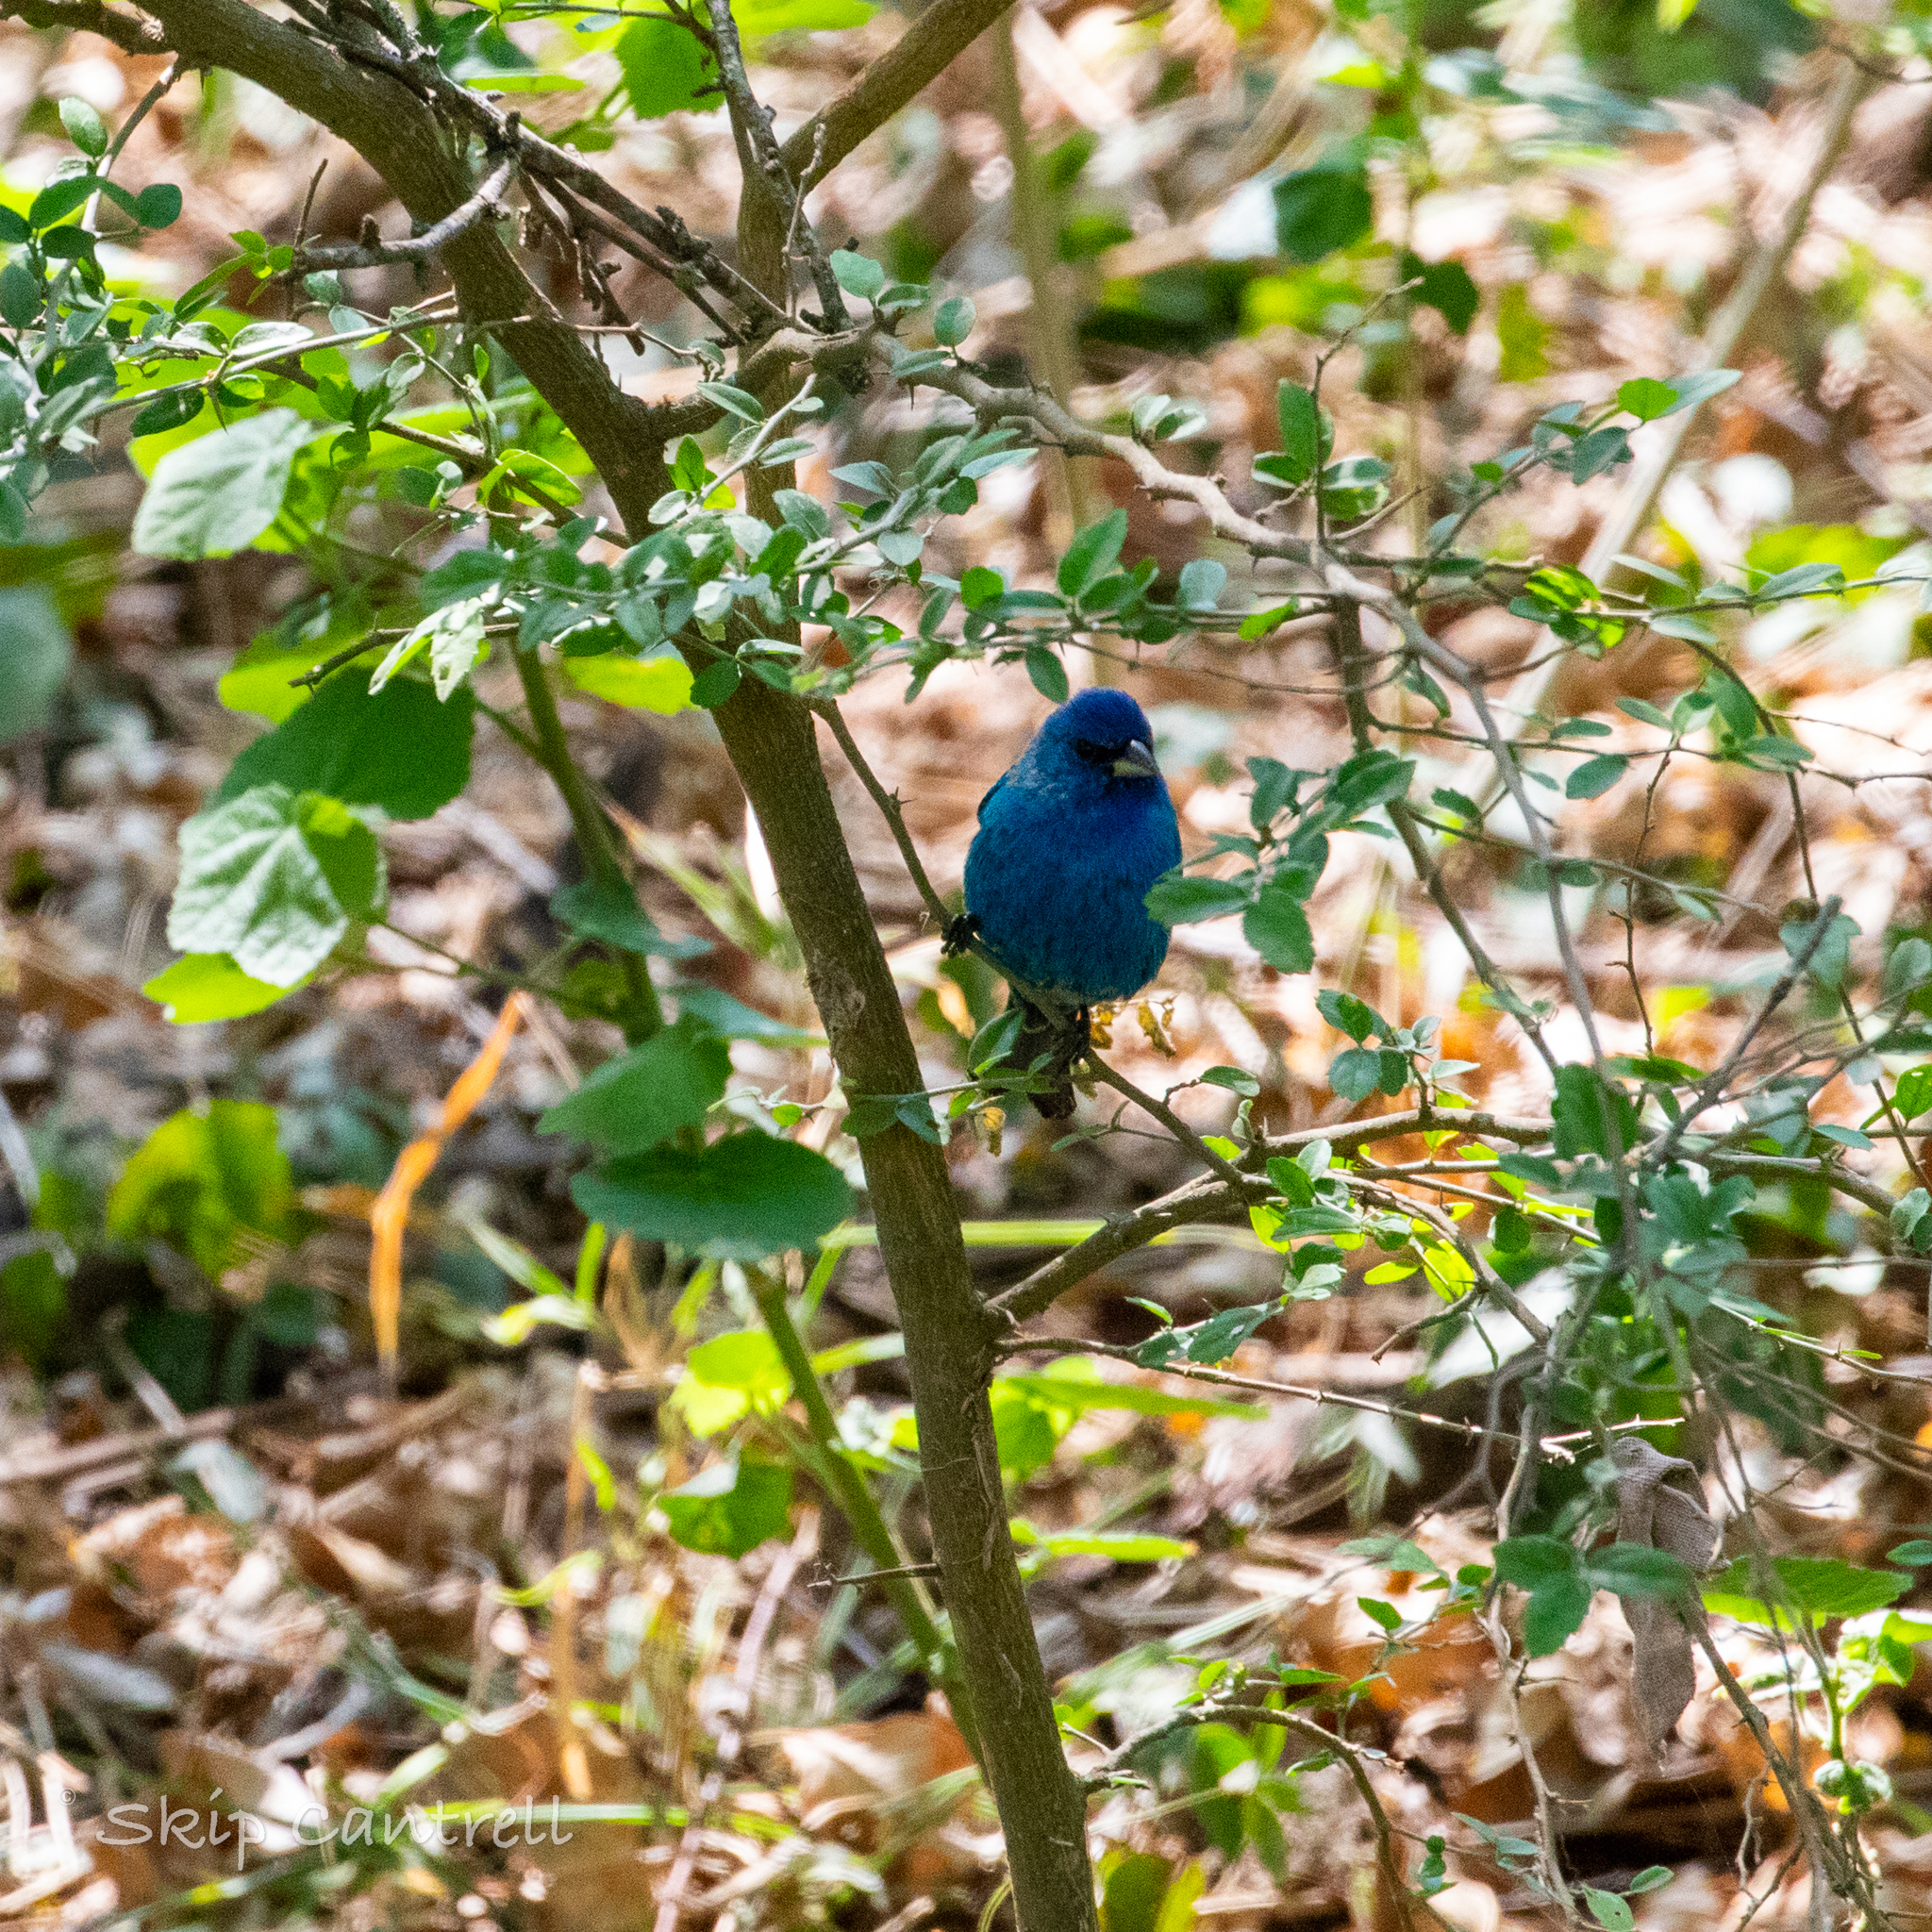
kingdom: Animalia
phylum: Chordata
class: Aves
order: Passeriformes
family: Cardinalidae
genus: Passerina
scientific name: Passerina cyanea
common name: Indigo bunting
